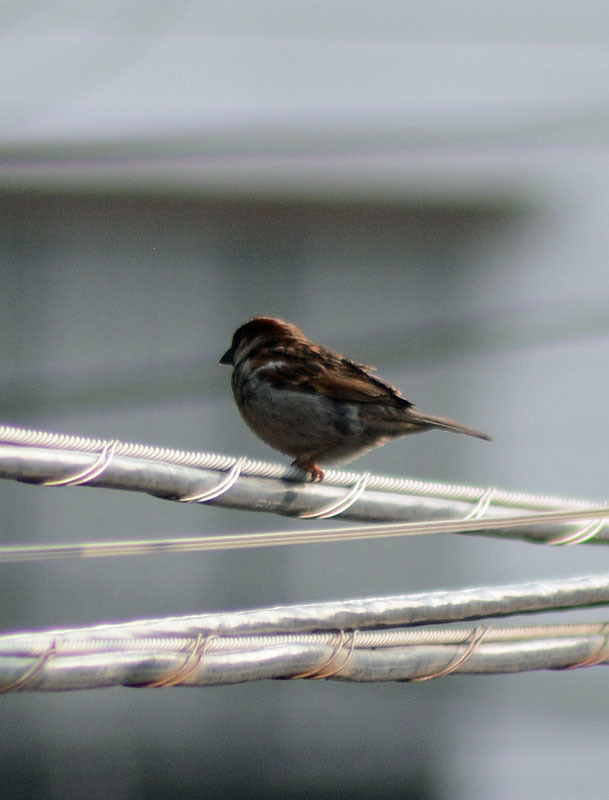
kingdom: Animalia
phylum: Chordata
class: Aves
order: Passeriformes
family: Passeridae
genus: Passer
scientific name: Passer domesticus
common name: House sparrow
